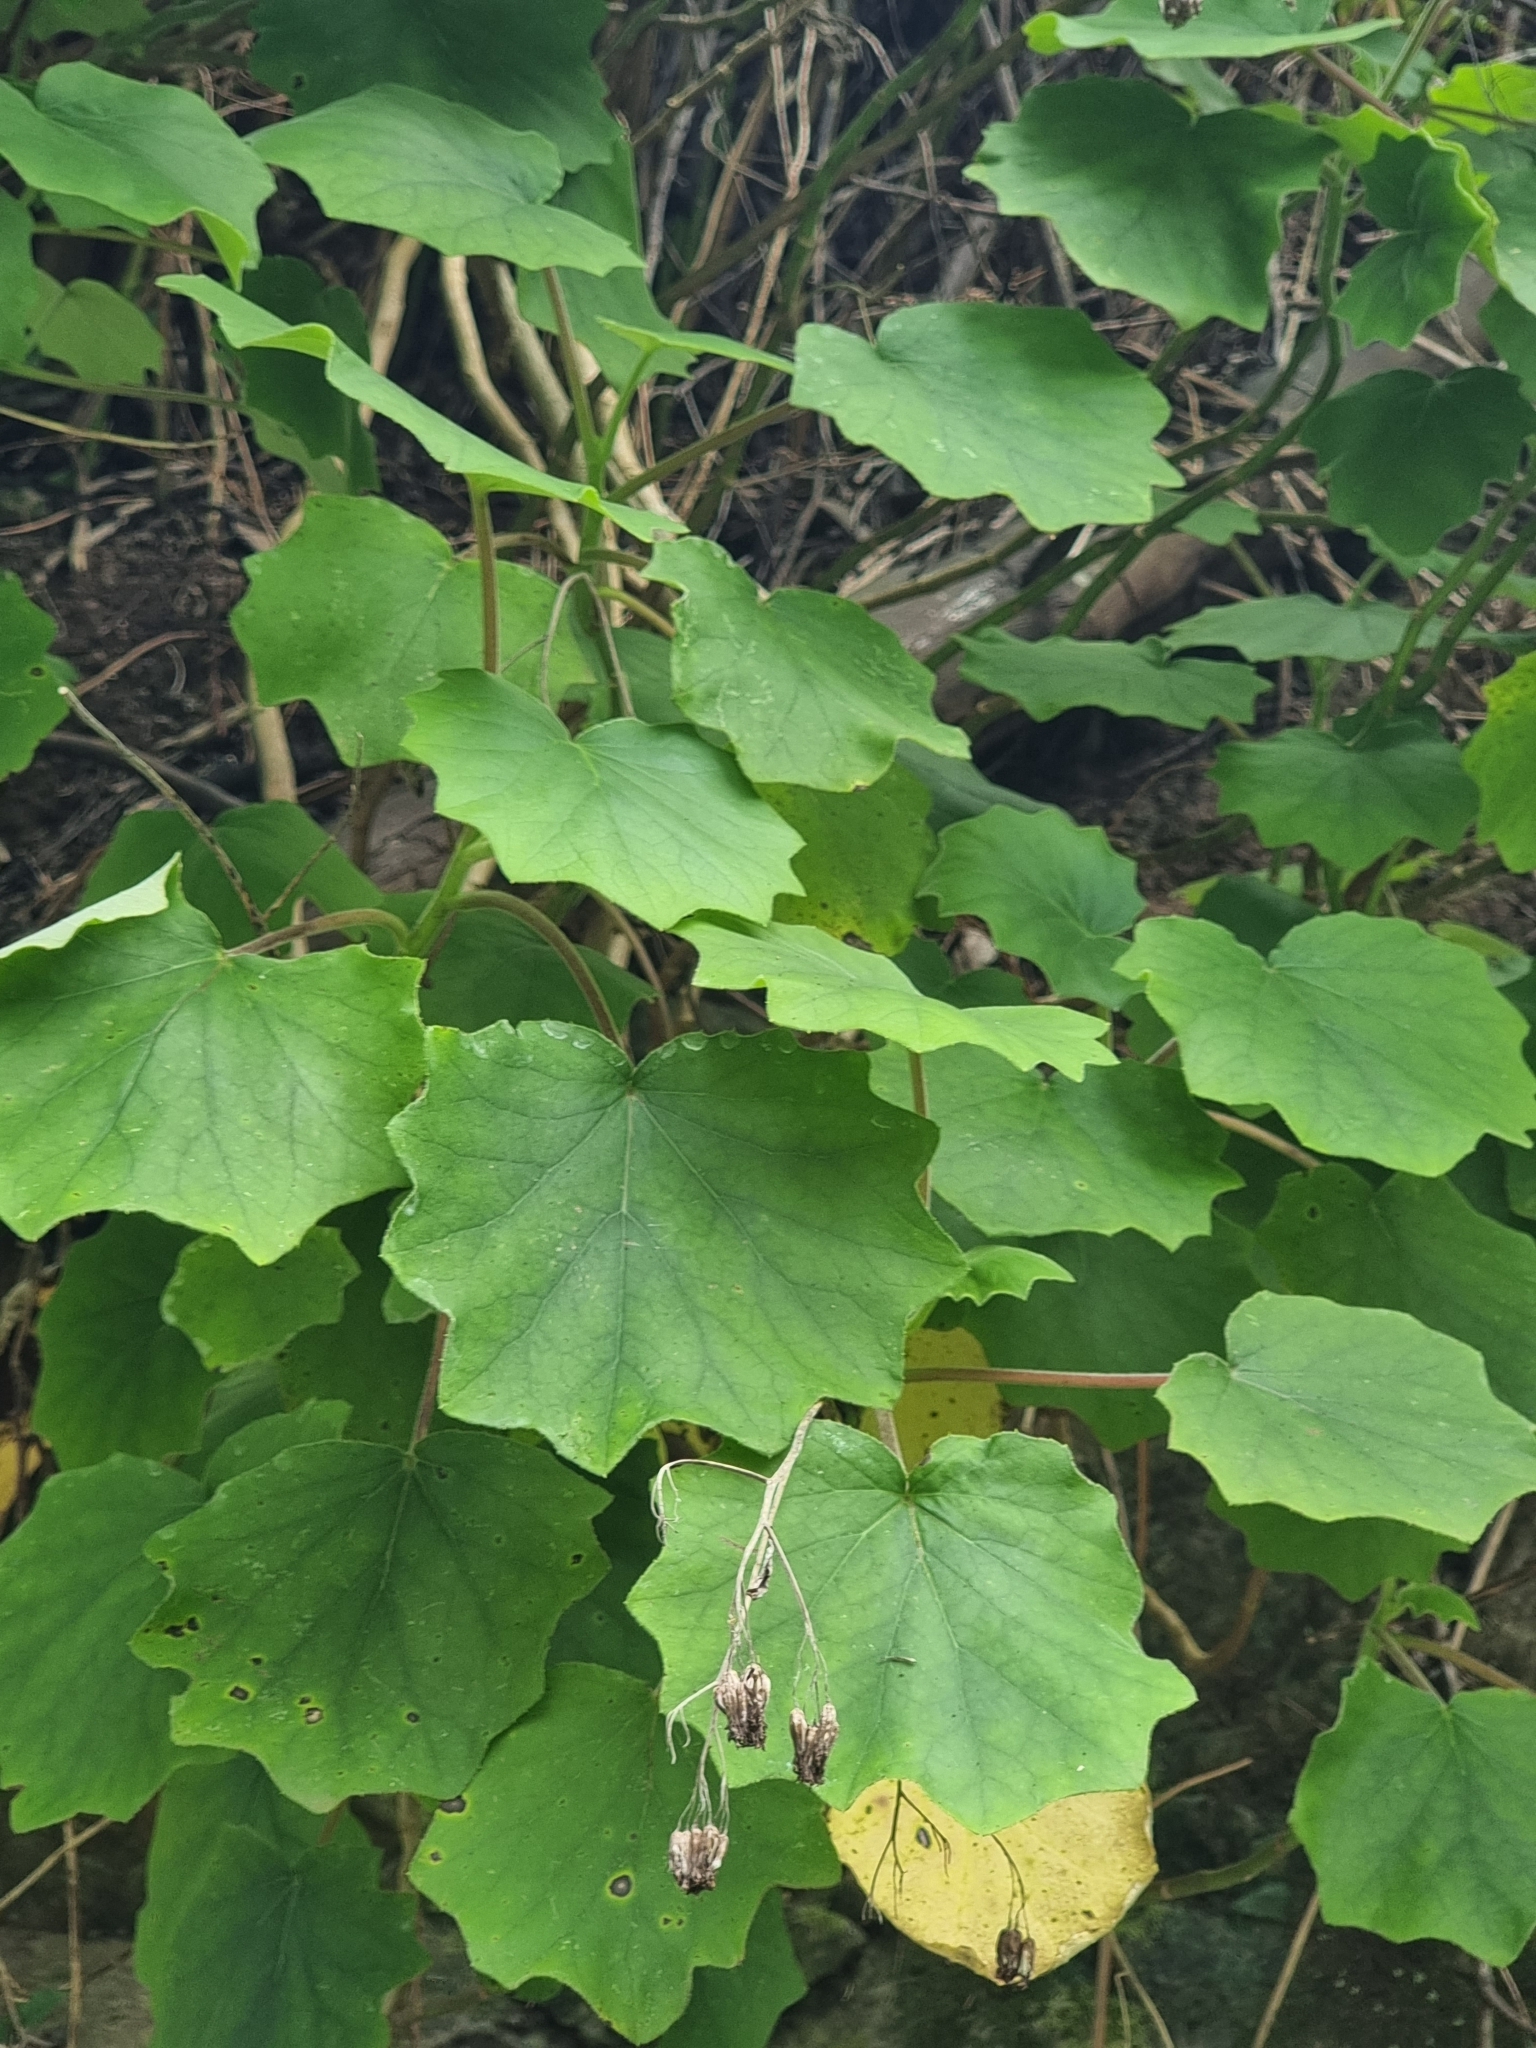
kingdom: Plantae
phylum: Tracheophyta
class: Magnoliopsida
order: Asterales
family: Asteraceae
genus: Roldana
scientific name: Roldana petasitis
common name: California-geranium
